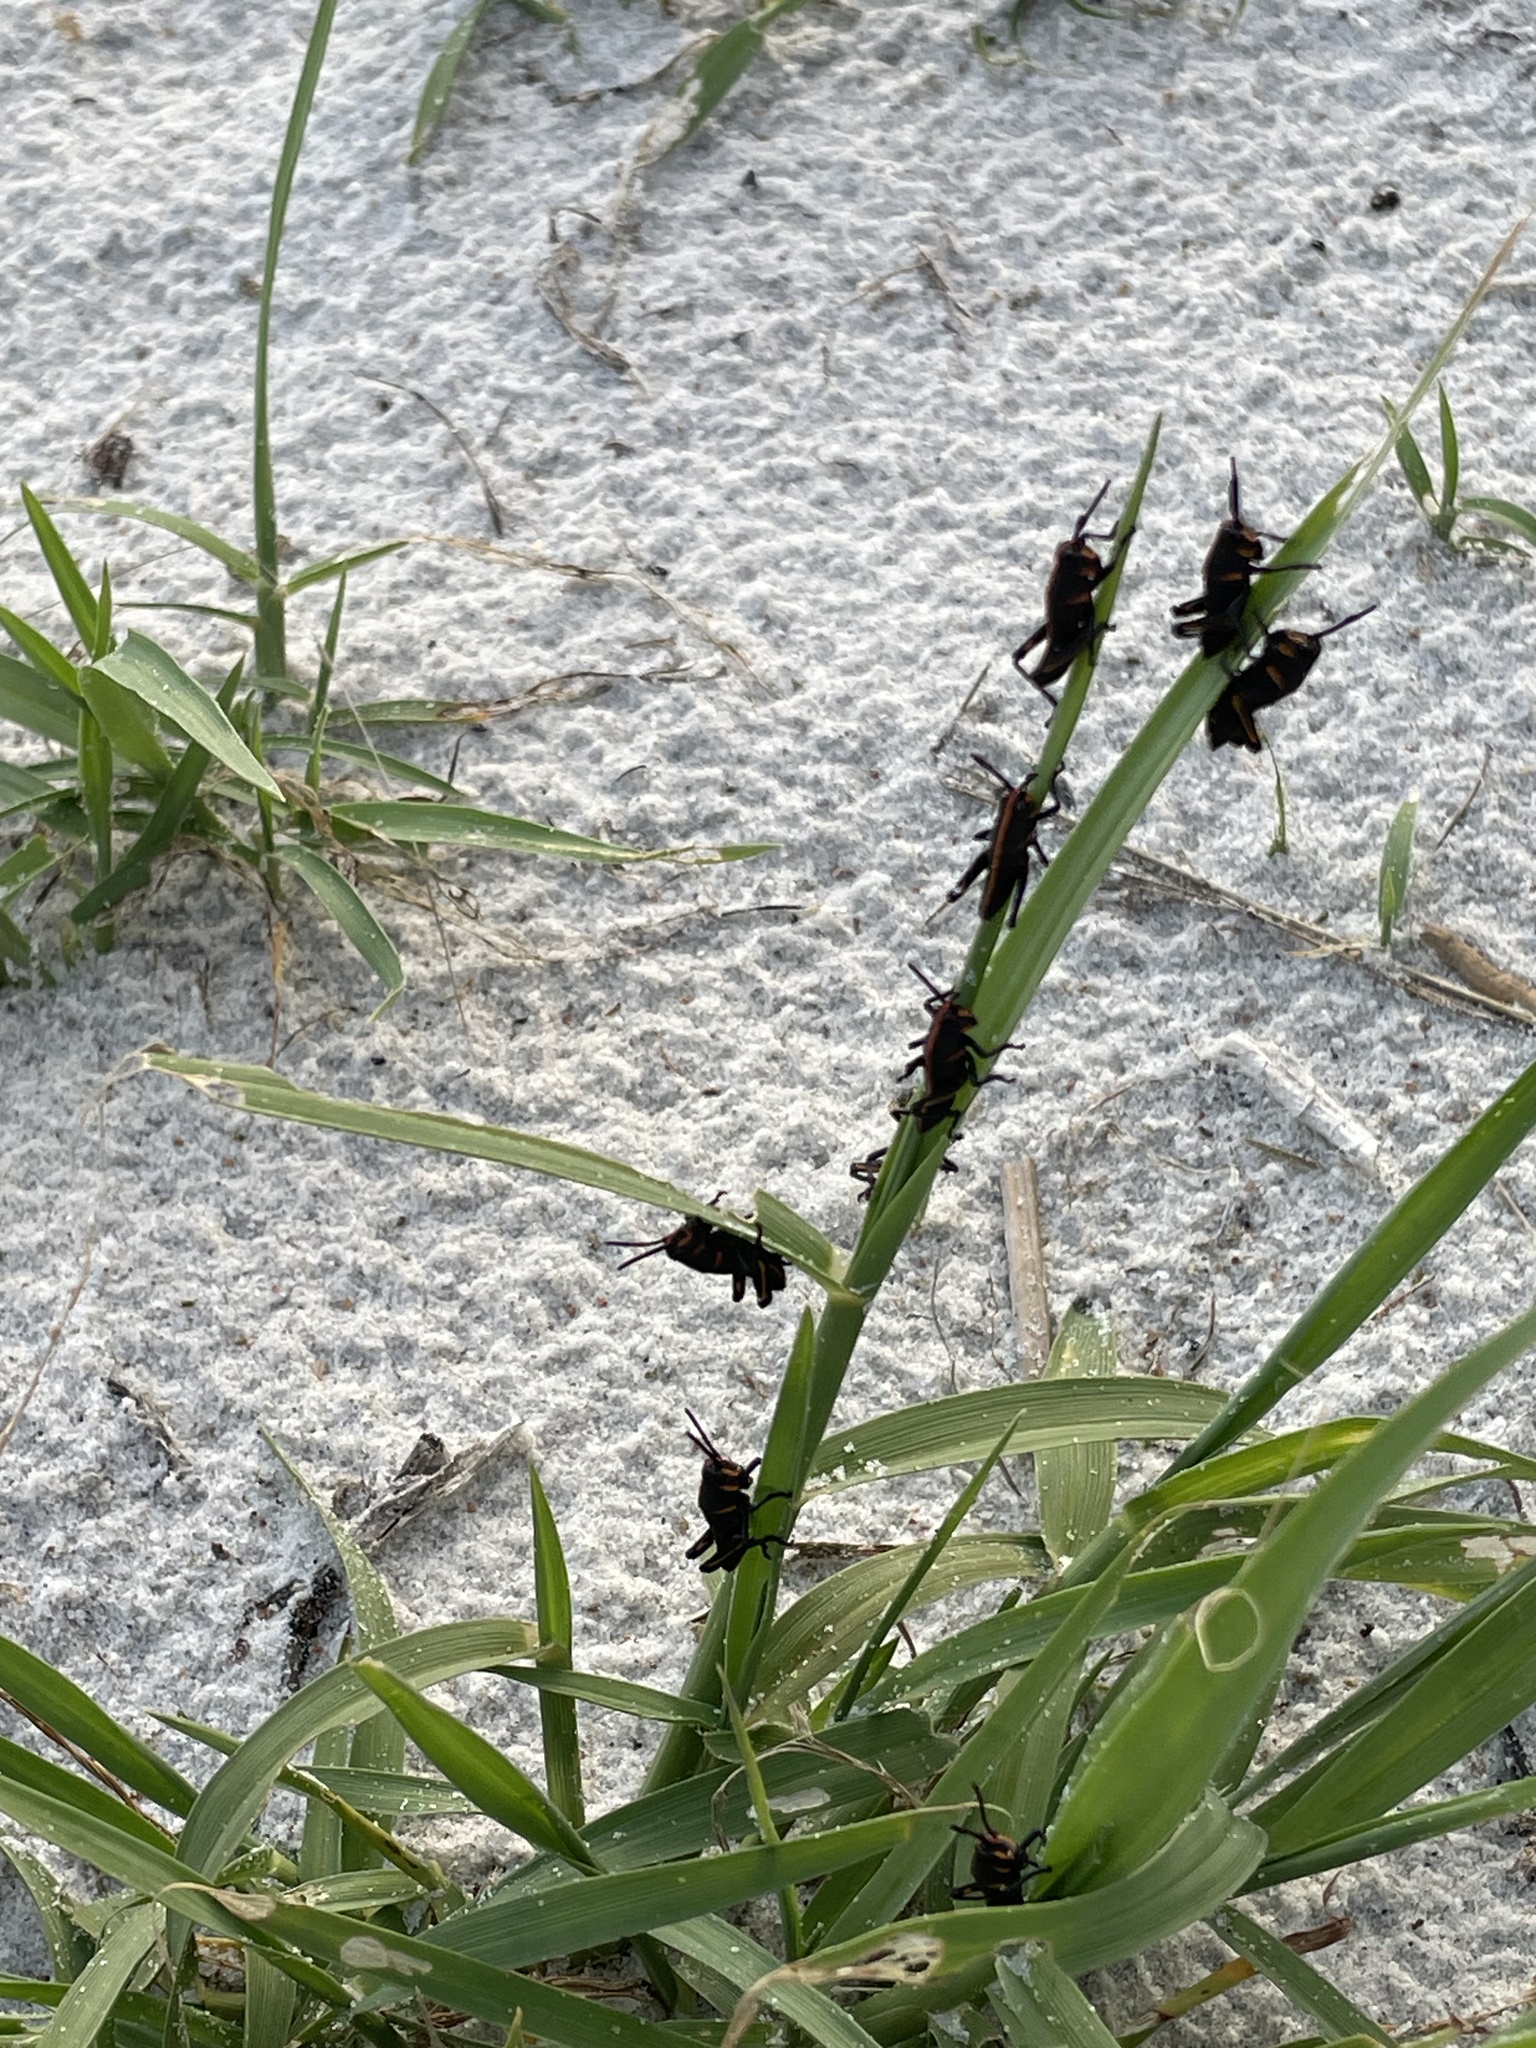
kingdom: Animalia
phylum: Arthropoda
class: Insecta
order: Orthoptera
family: Romaleidae
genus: Romalea
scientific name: Romalea microptera
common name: Eastern lubber grasshopper
